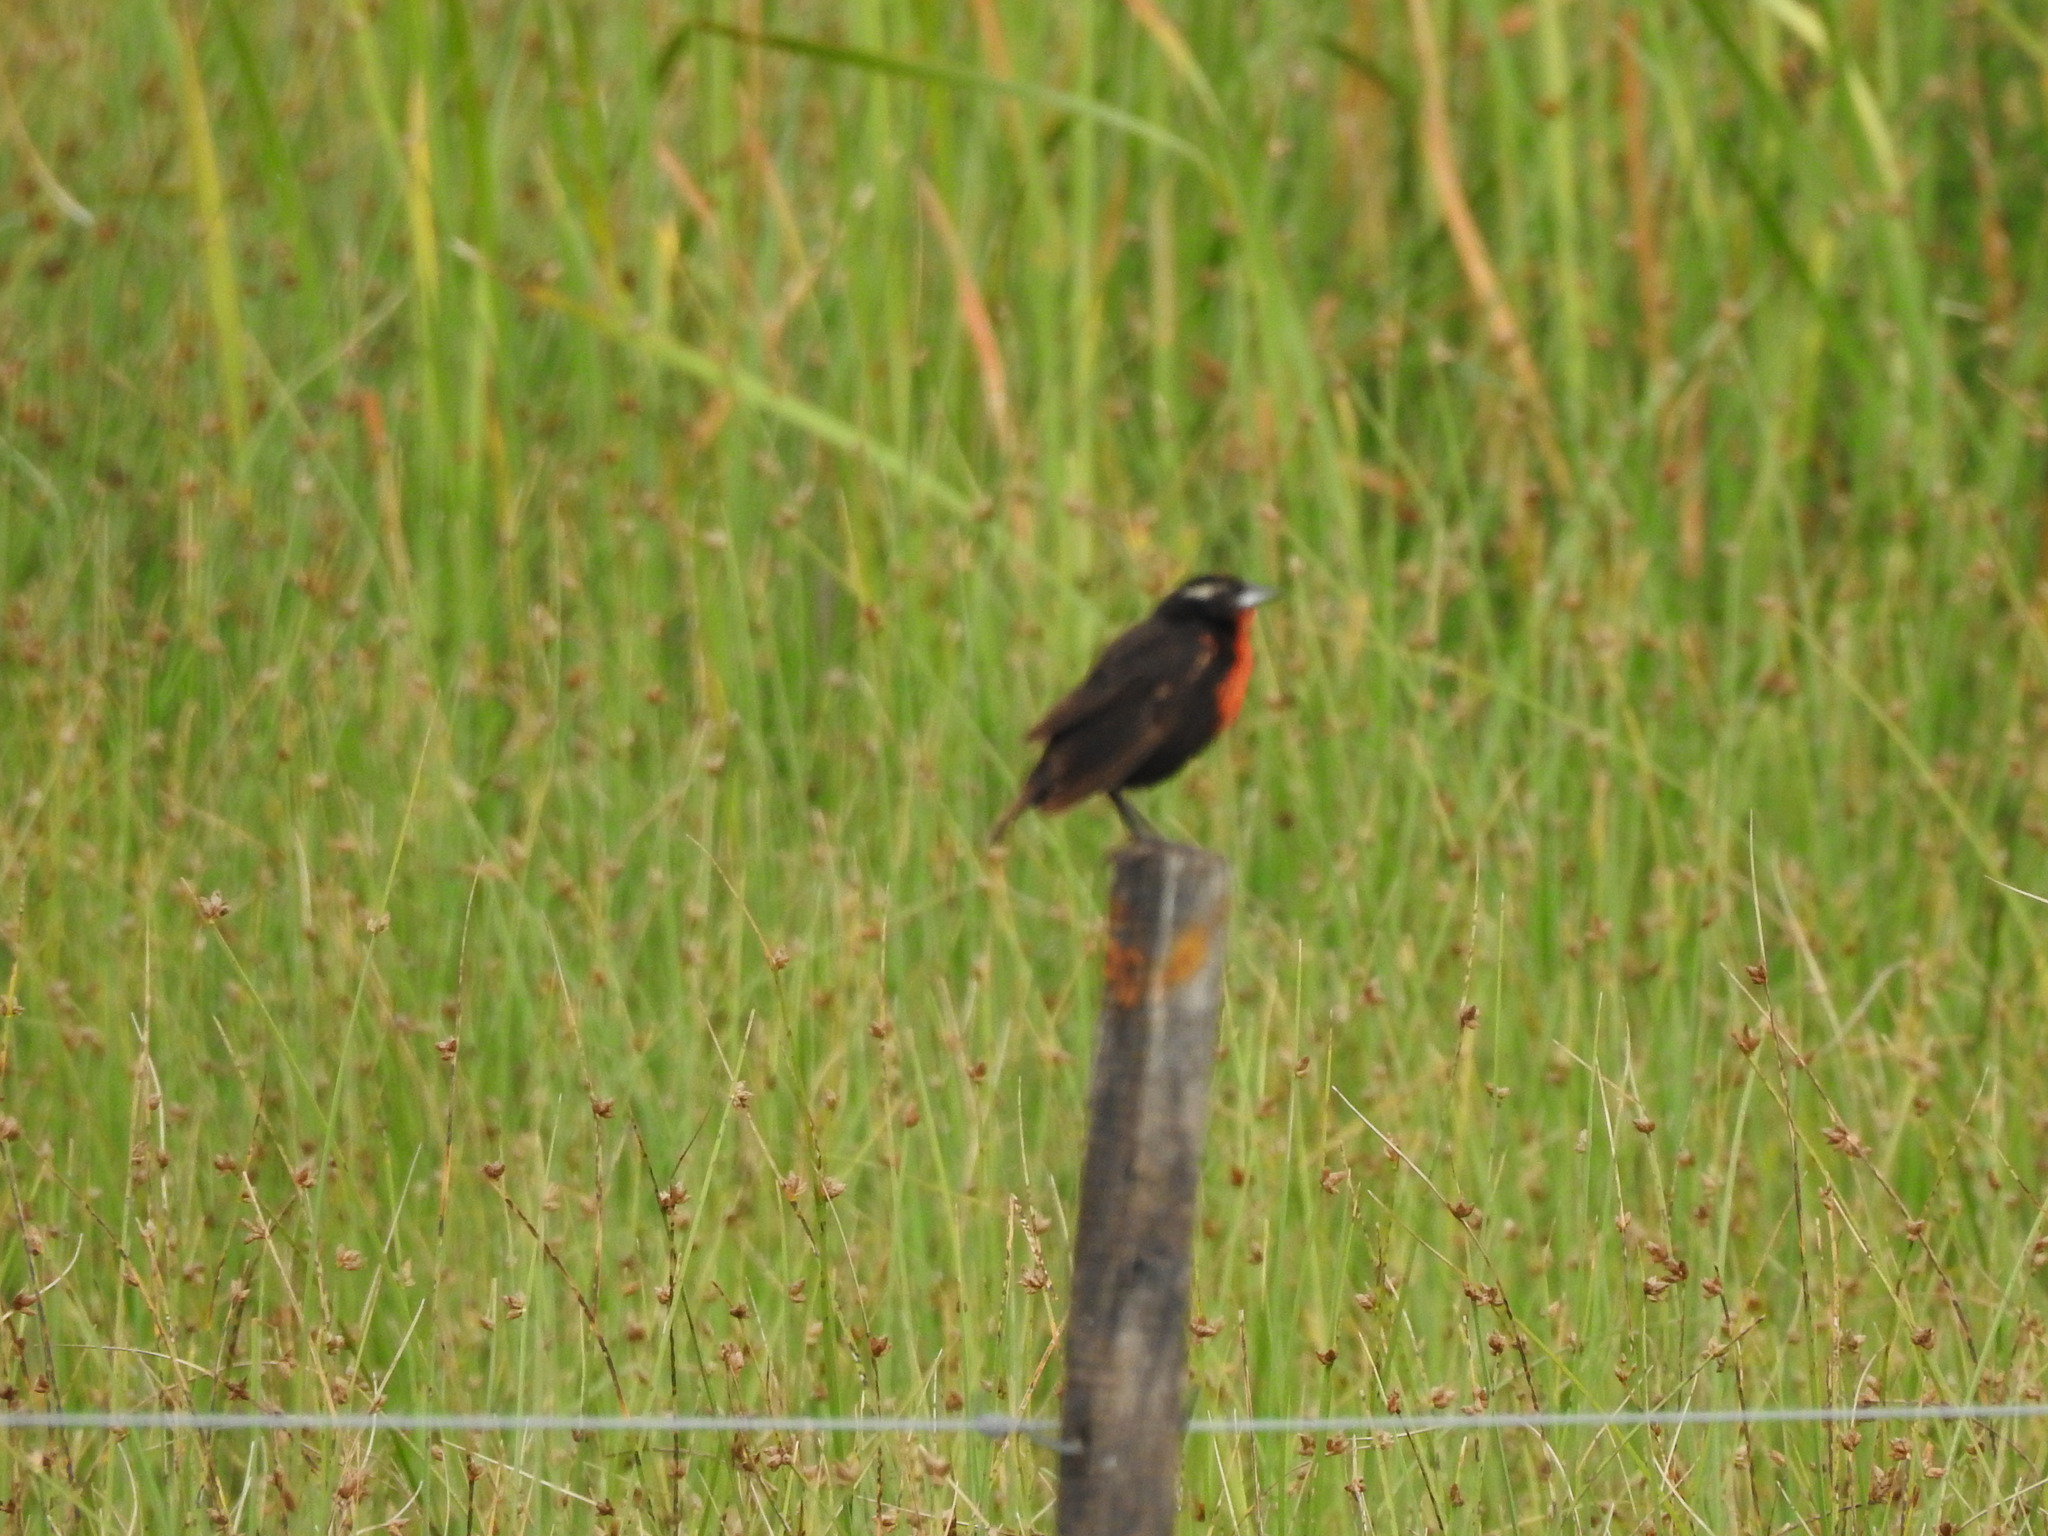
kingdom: Animalia
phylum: Chordata
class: Aves
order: Passeriformes
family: Icteridae
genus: Sturnella
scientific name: Sturnella superciliaris
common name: White-browed blackbird
